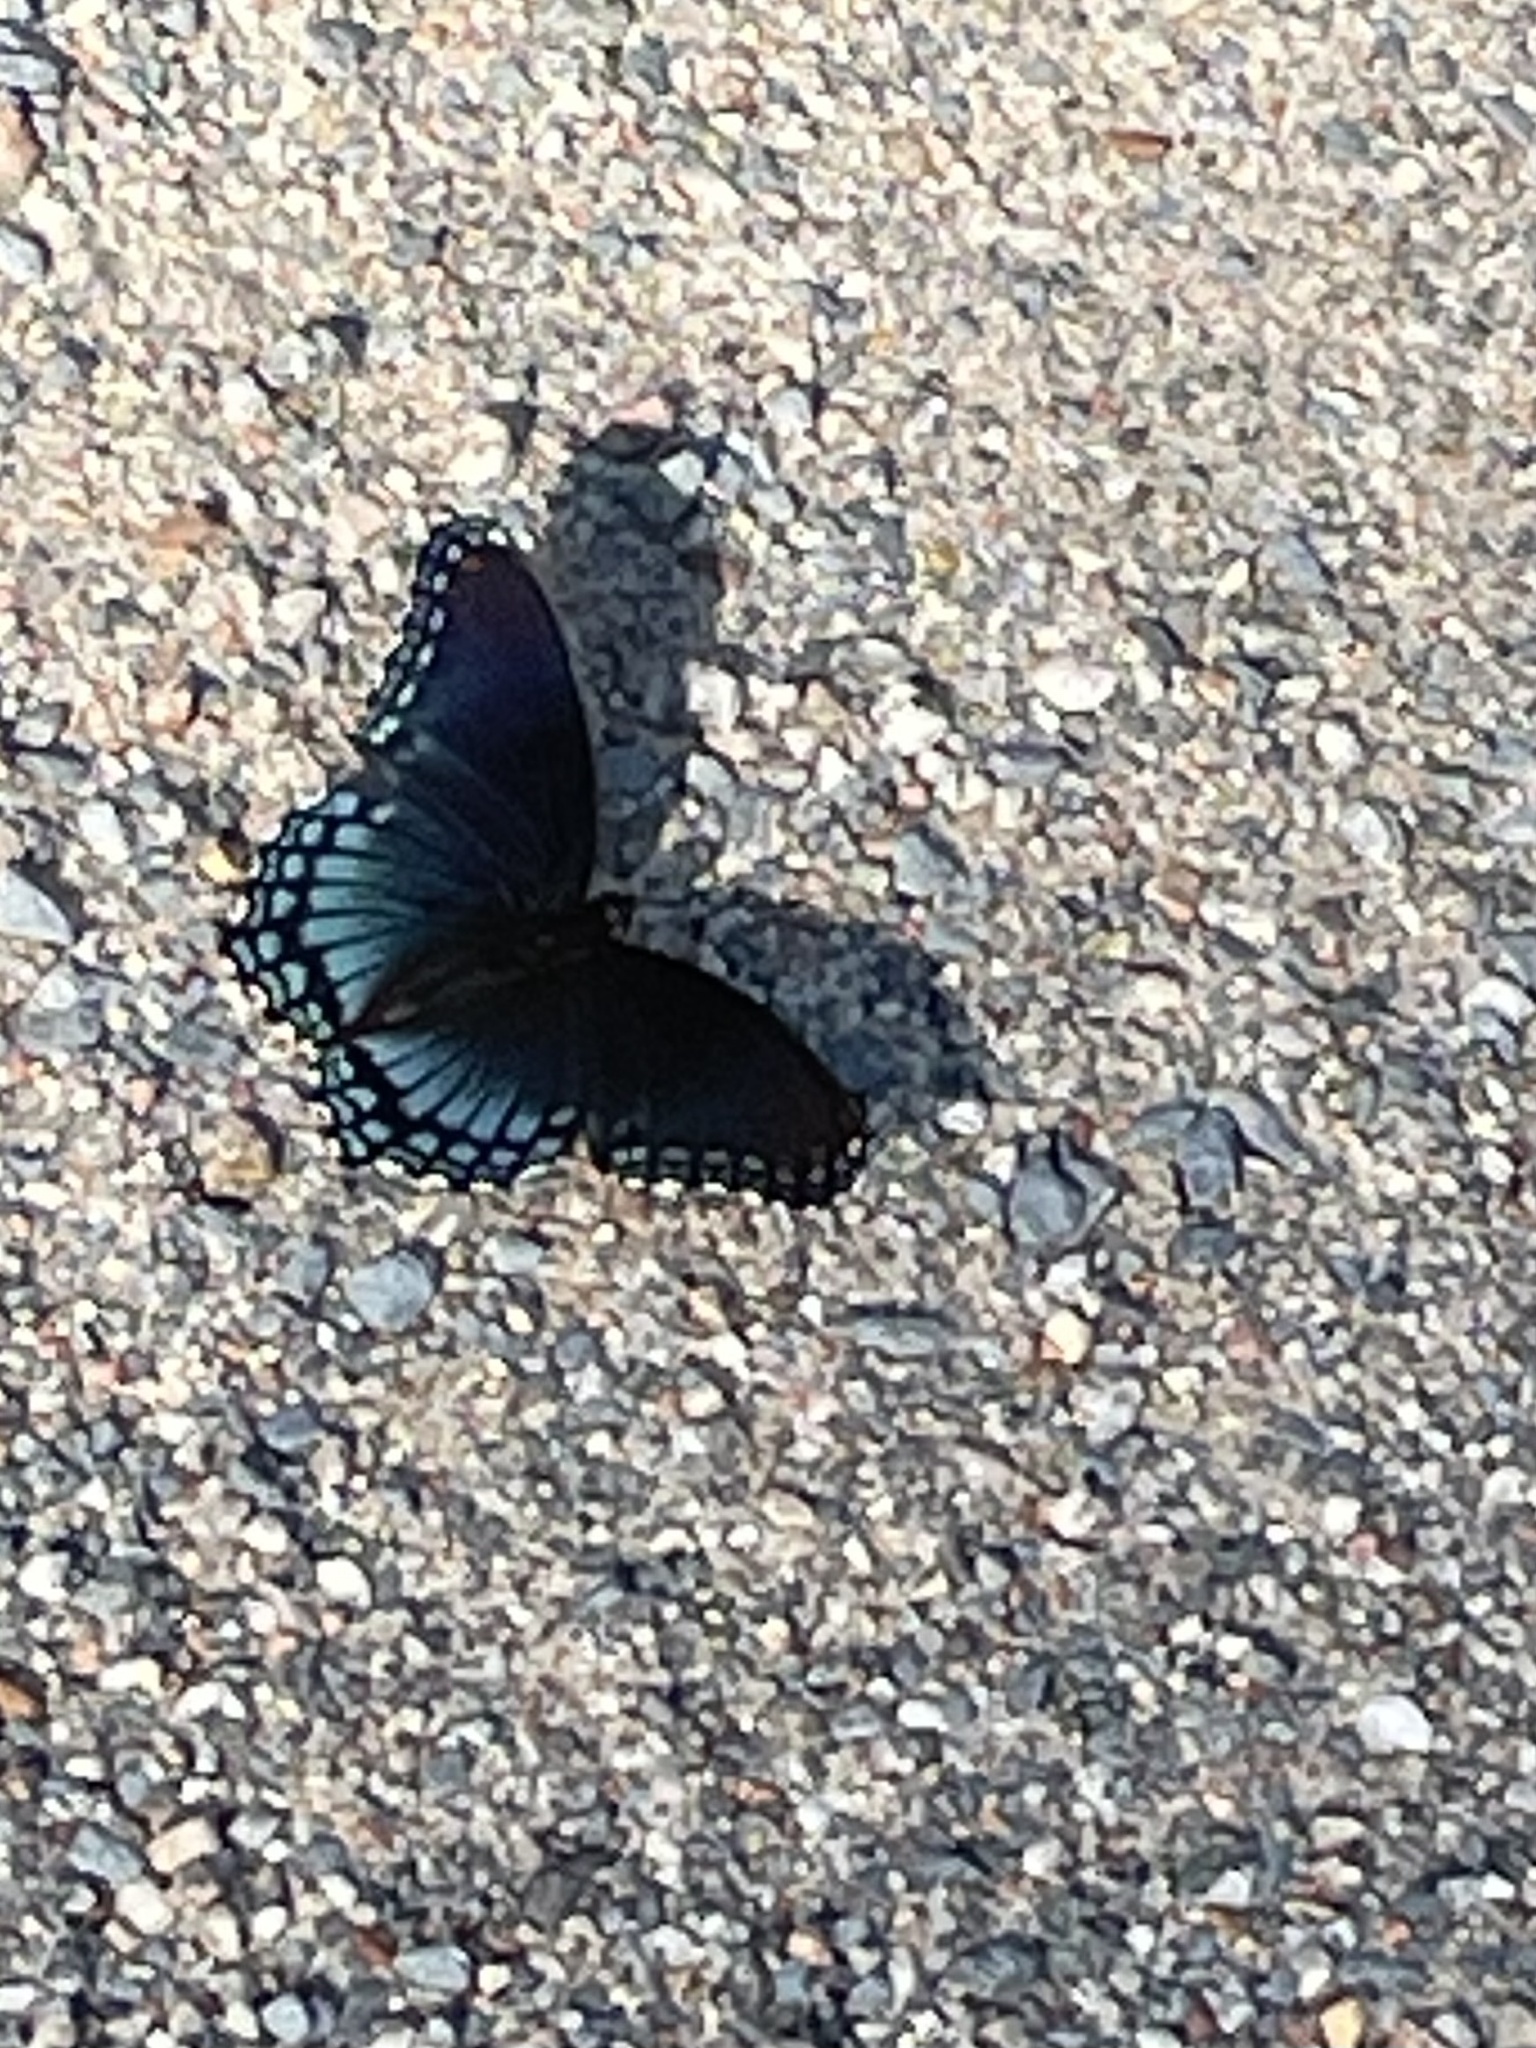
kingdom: Animalia
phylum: Arthropoda
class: Insecta
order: Lepidoptera
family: Nymphalidae
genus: Limenitis
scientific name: Limenitis astyanax
